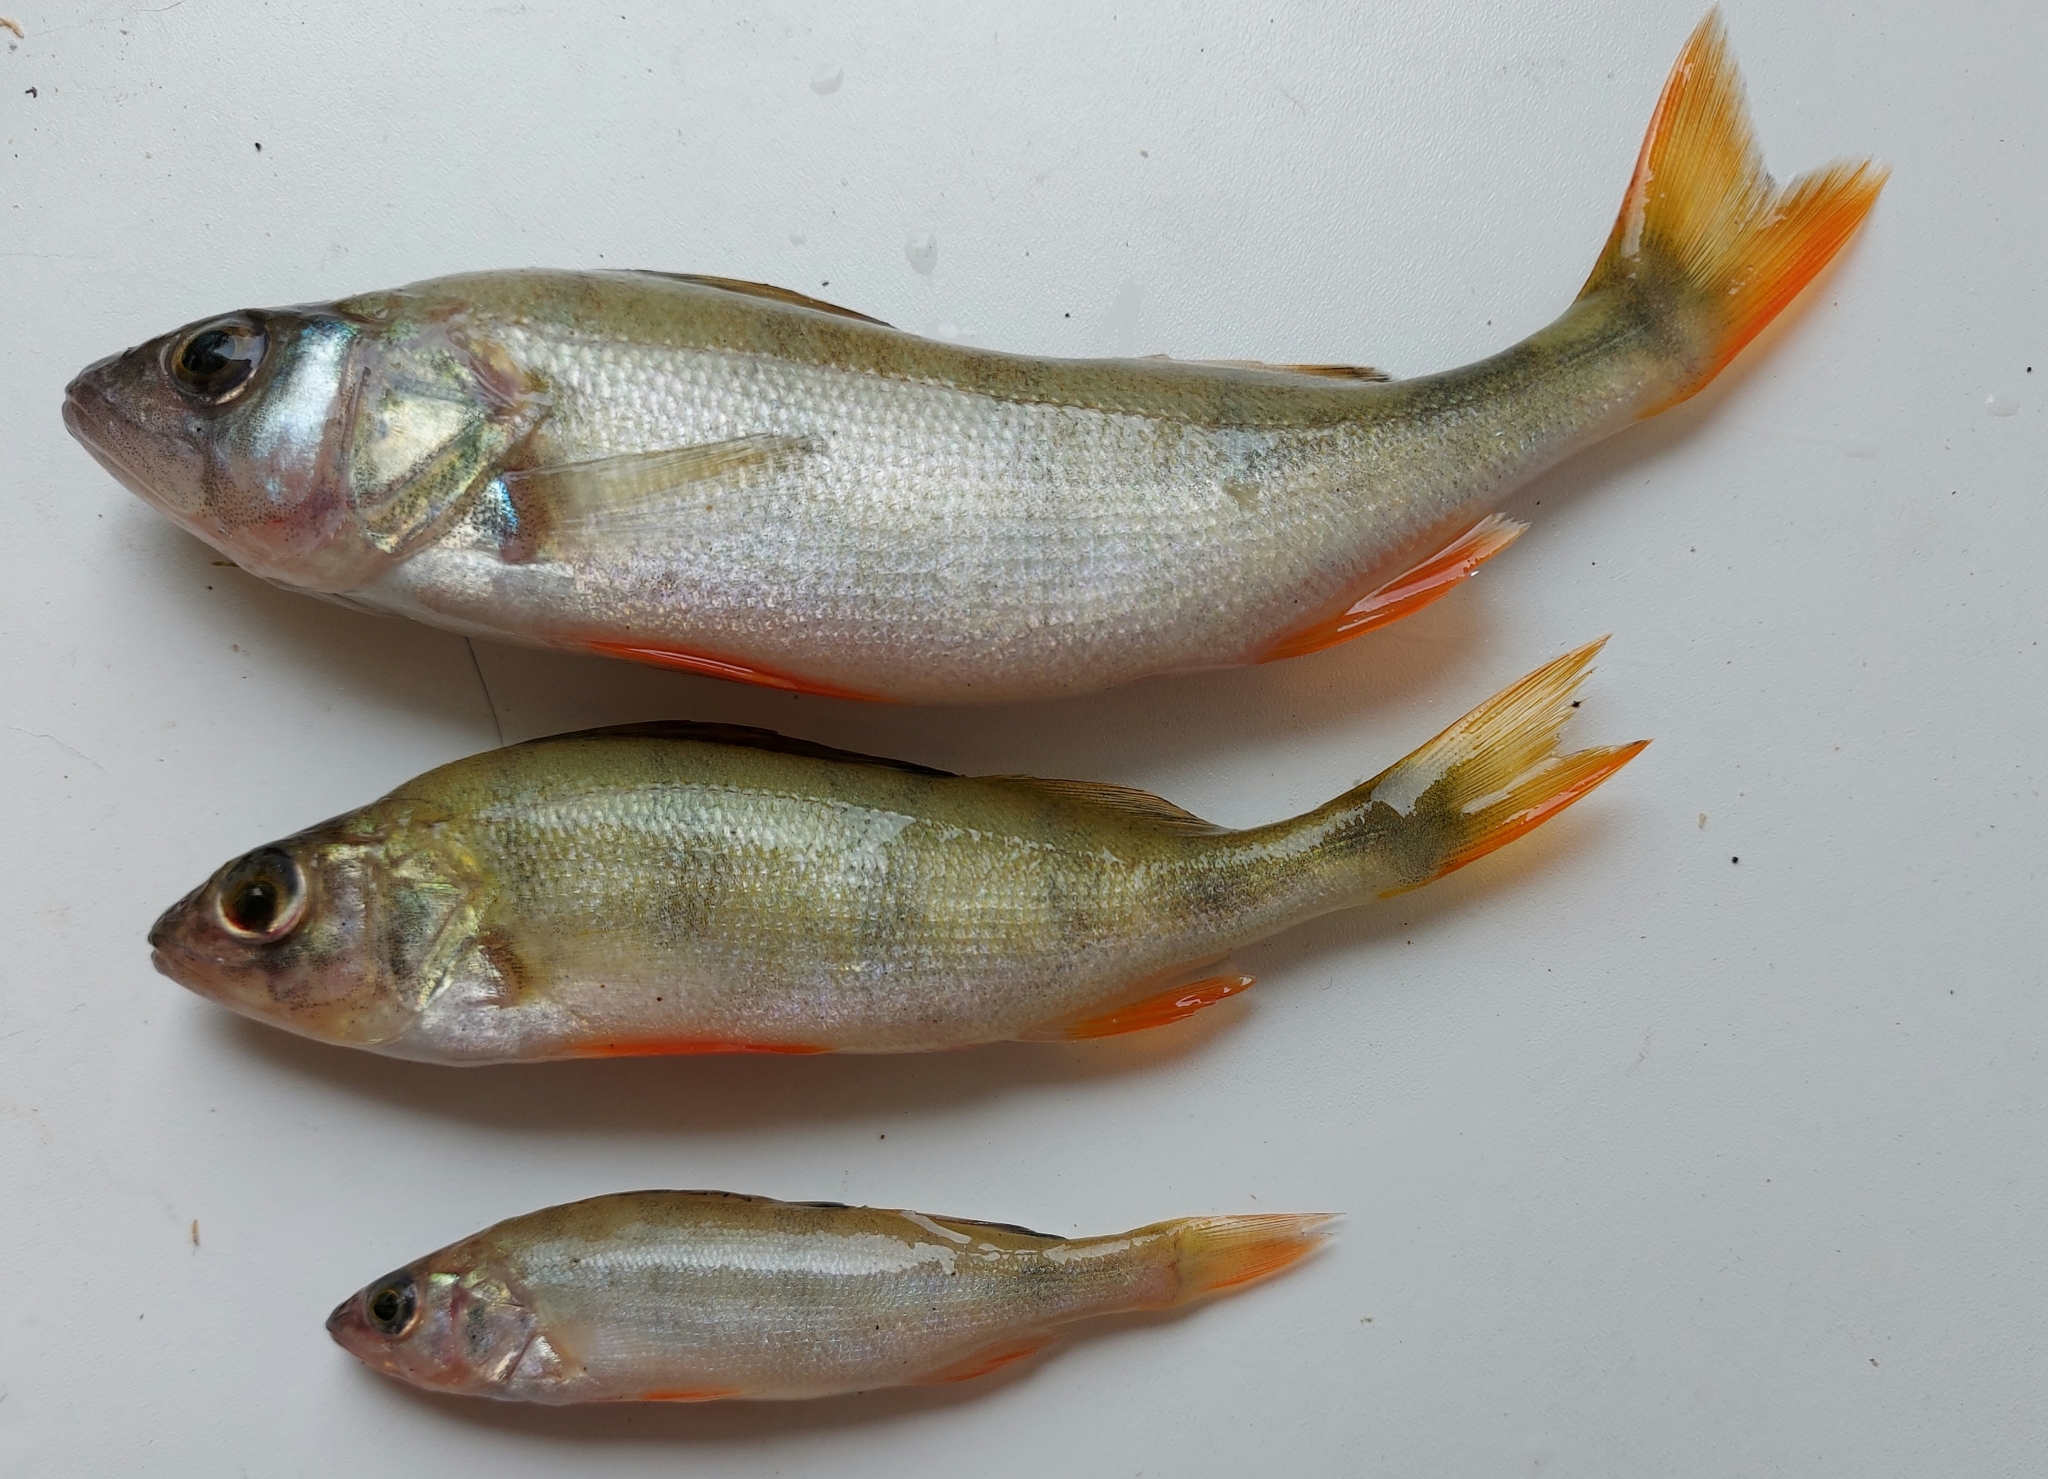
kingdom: Animalia
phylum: Chordata
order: Perciformes
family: Percidae
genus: Perca
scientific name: Perca fluviatilis
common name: Perch
